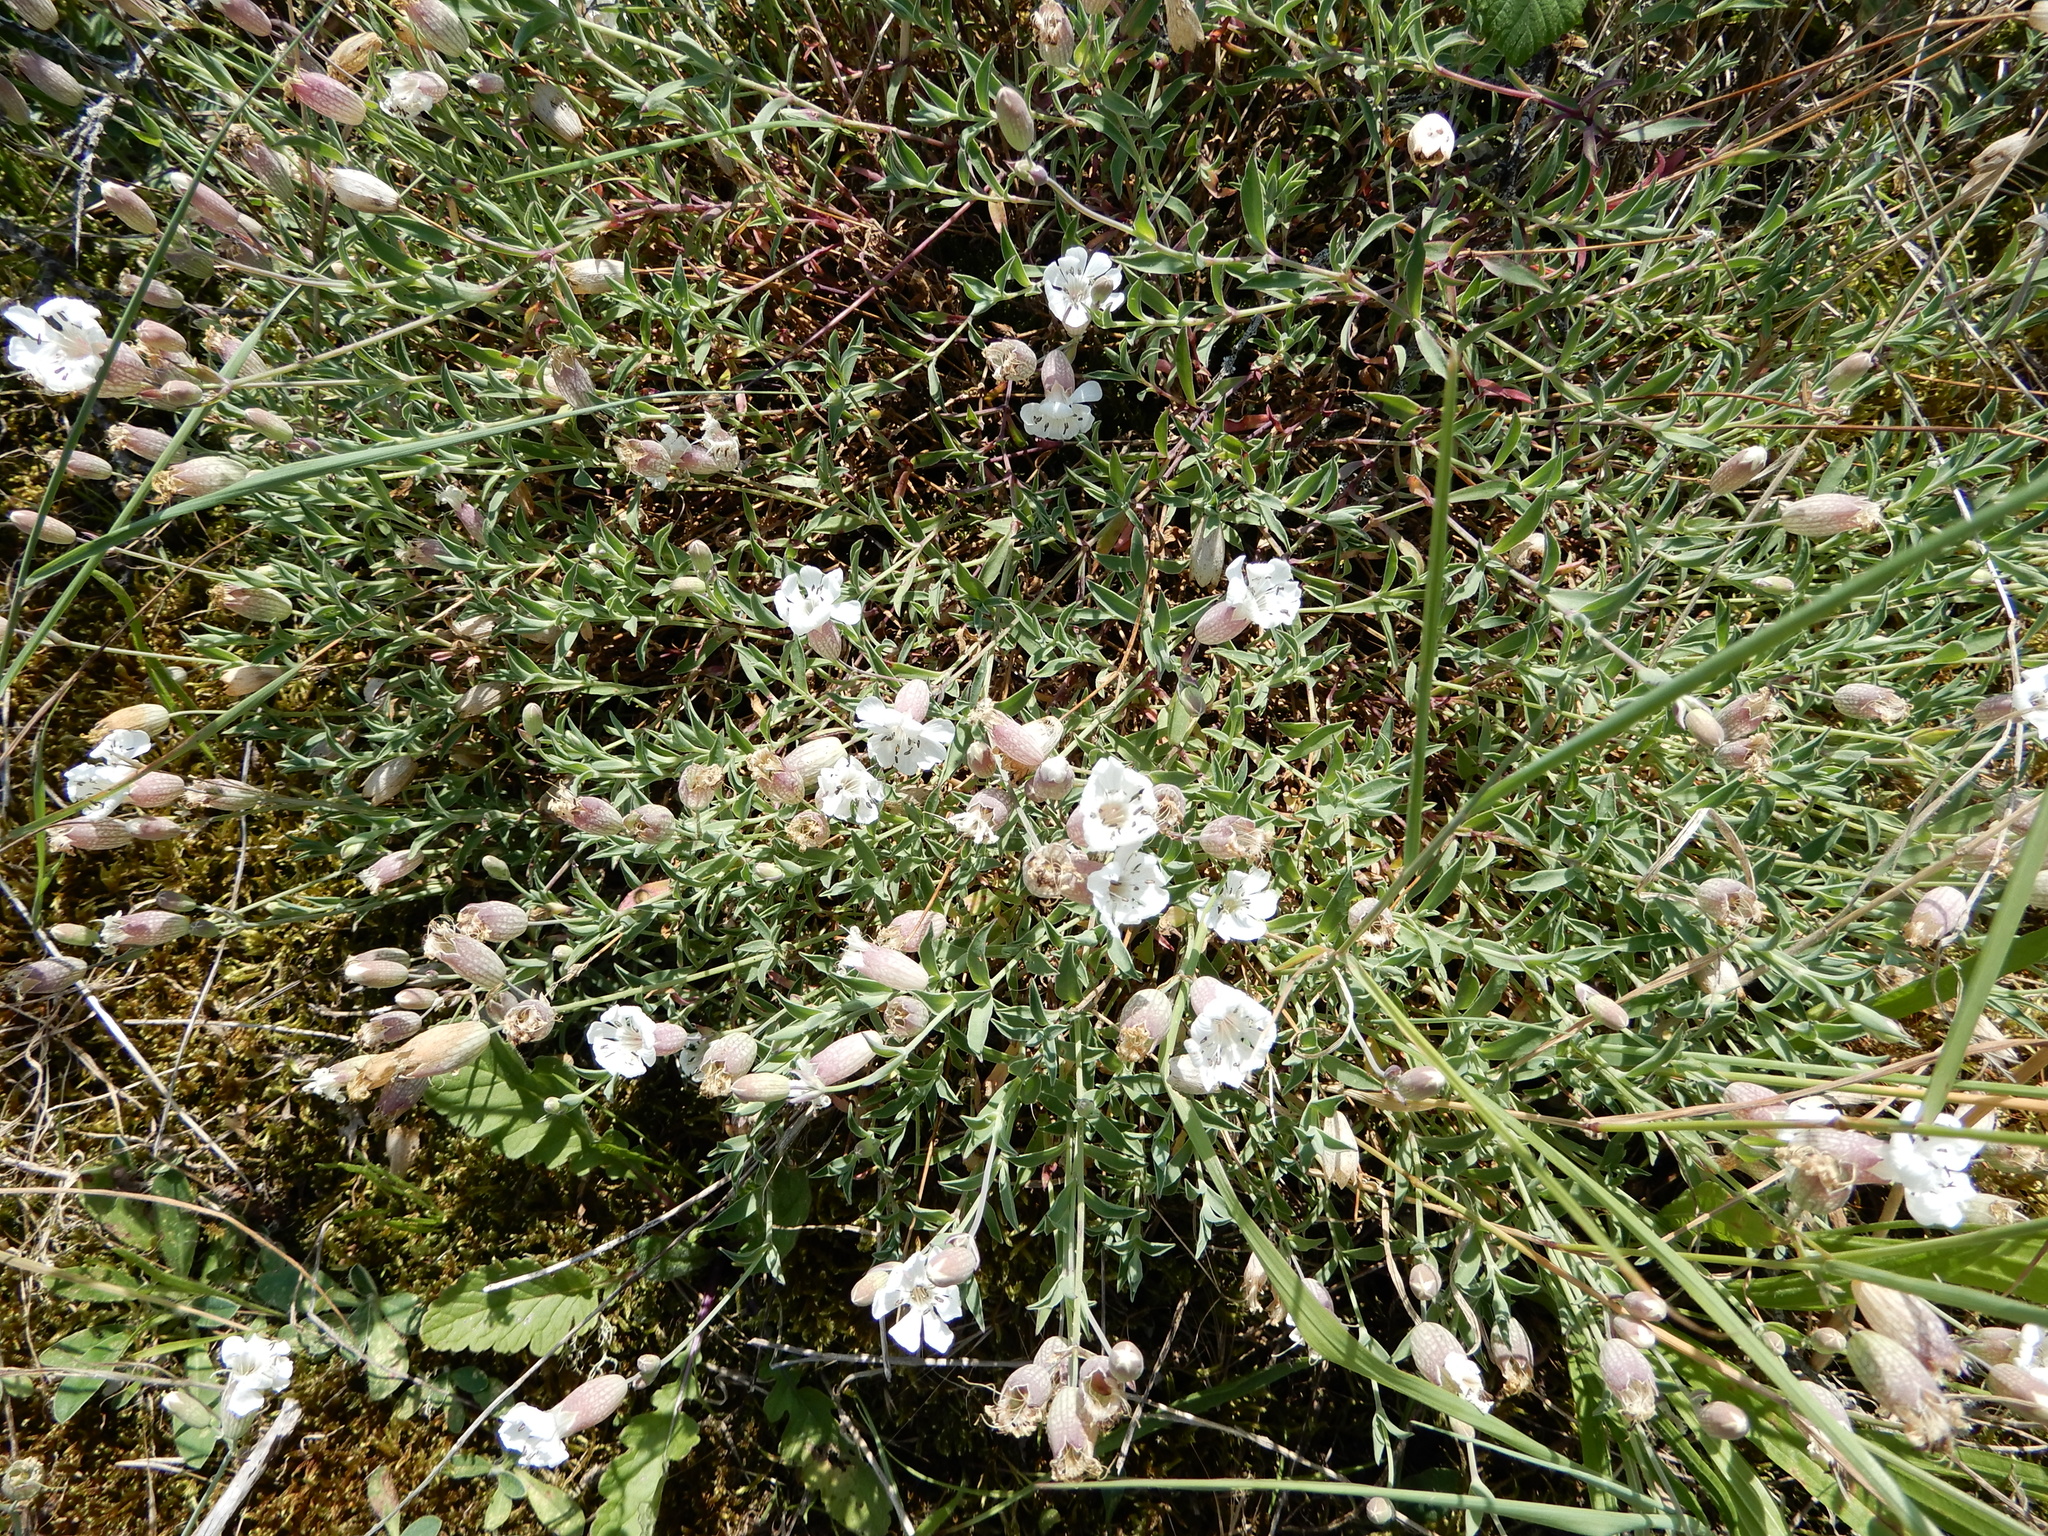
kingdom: Plantae
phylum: Tracheophyta
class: Magnoliopsida
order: Caryophyllales
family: Caryophyllaceae
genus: Silene
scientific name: Silene vulgaris
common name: Bladder campion
